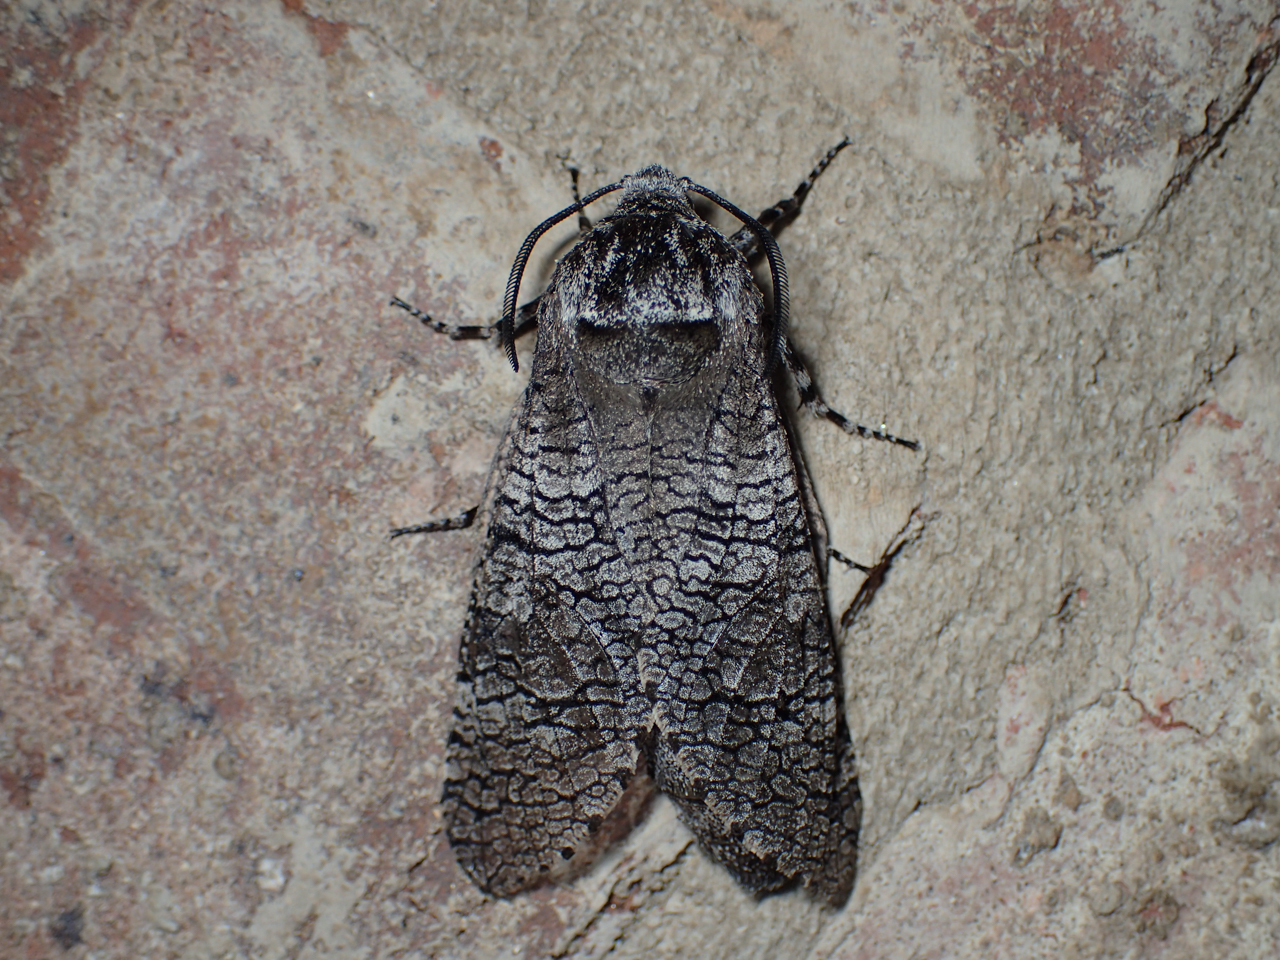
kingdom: Animalia
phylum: Arthropoda
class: Insecta
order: Lepidoptera
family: Cossidae
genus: Prionoxystus
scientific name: Prionoxystus macmurtrei
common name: Little carpenterworm
